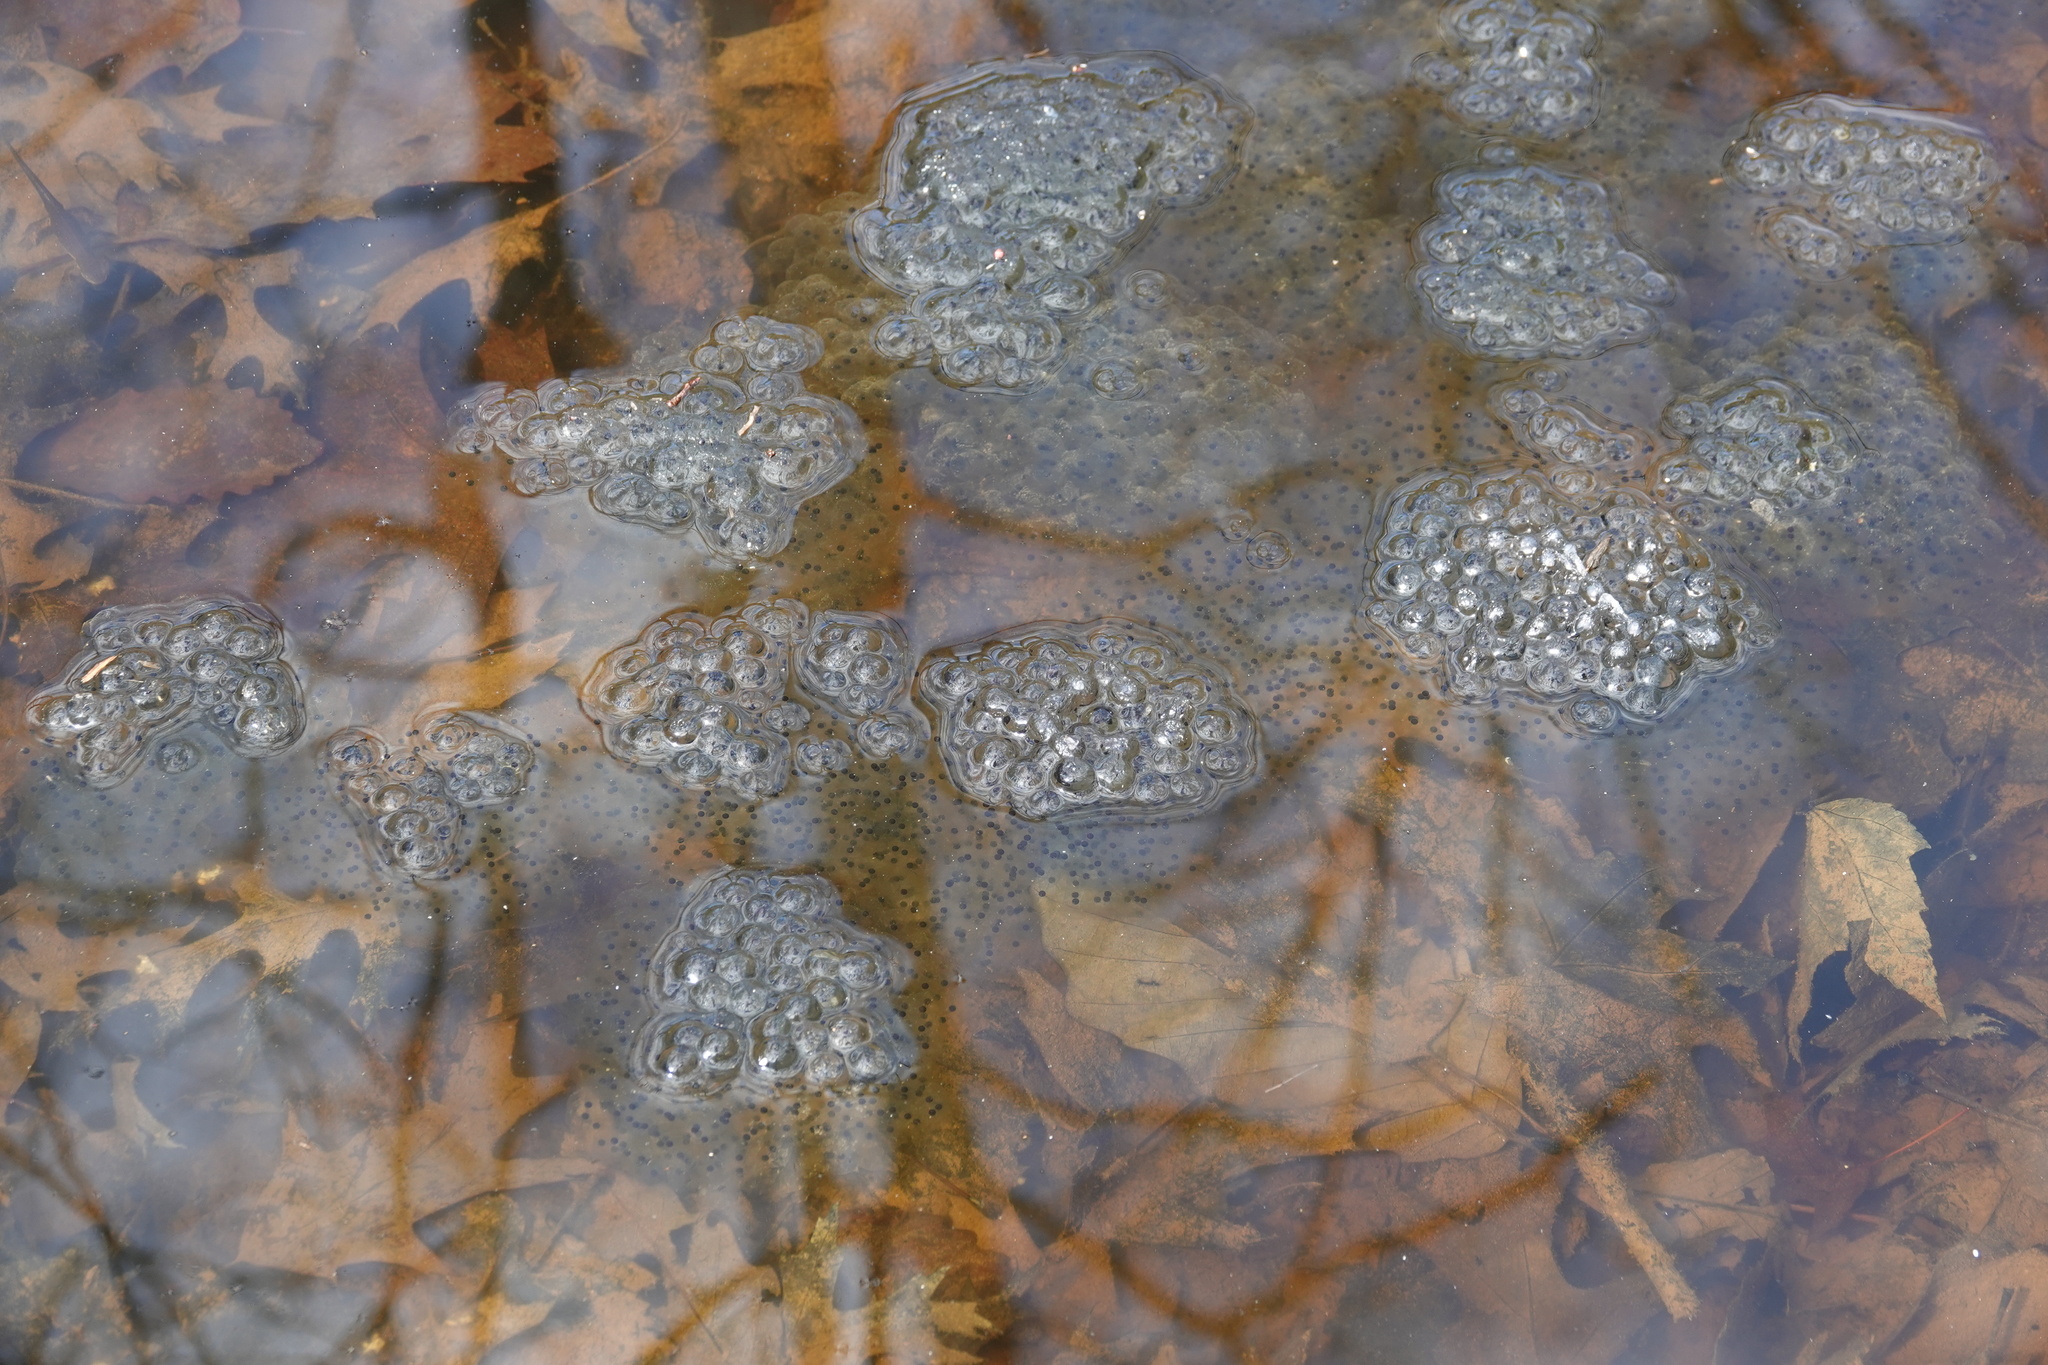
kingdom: Animalia
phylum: Chordata
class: Amphibia
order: Anura
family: Ranidae
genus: Lithobates
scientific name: Lithobates sylvaticus
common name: Wood frog
